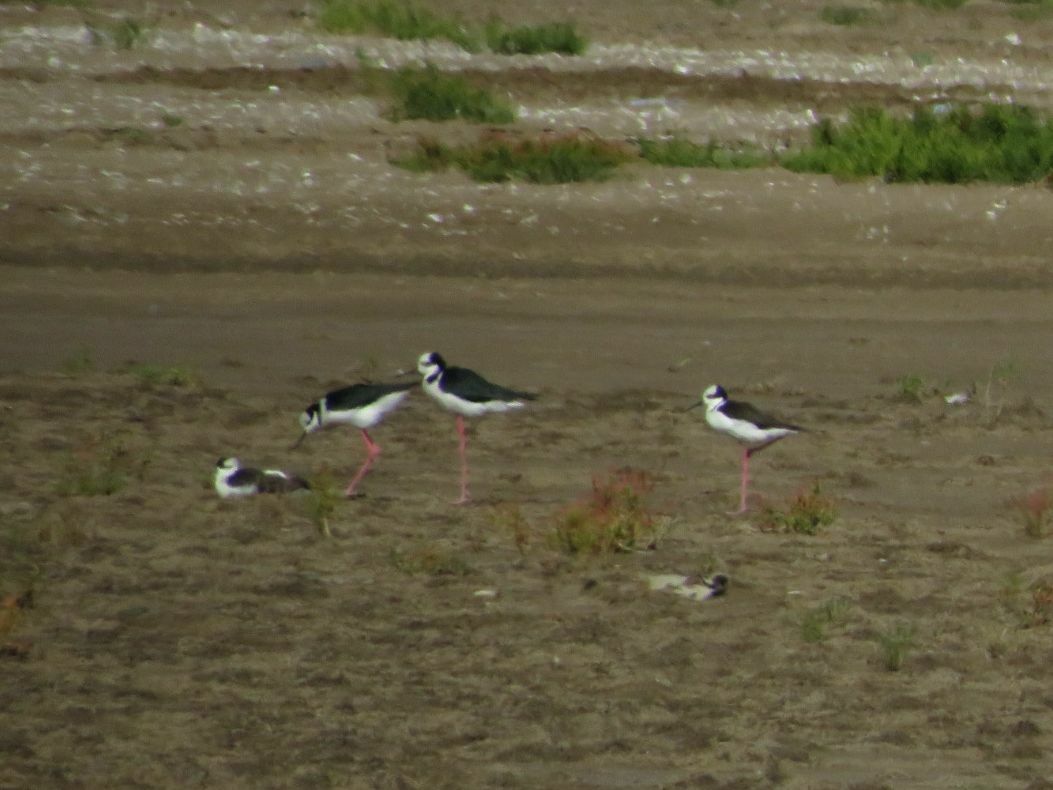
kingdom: Animalia
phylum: Chordata
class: Aves
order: Charadriiformes
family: Recurvirostridae
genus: Himantopus
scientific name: Himantopus mexicanus
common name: Black-necked stilt
